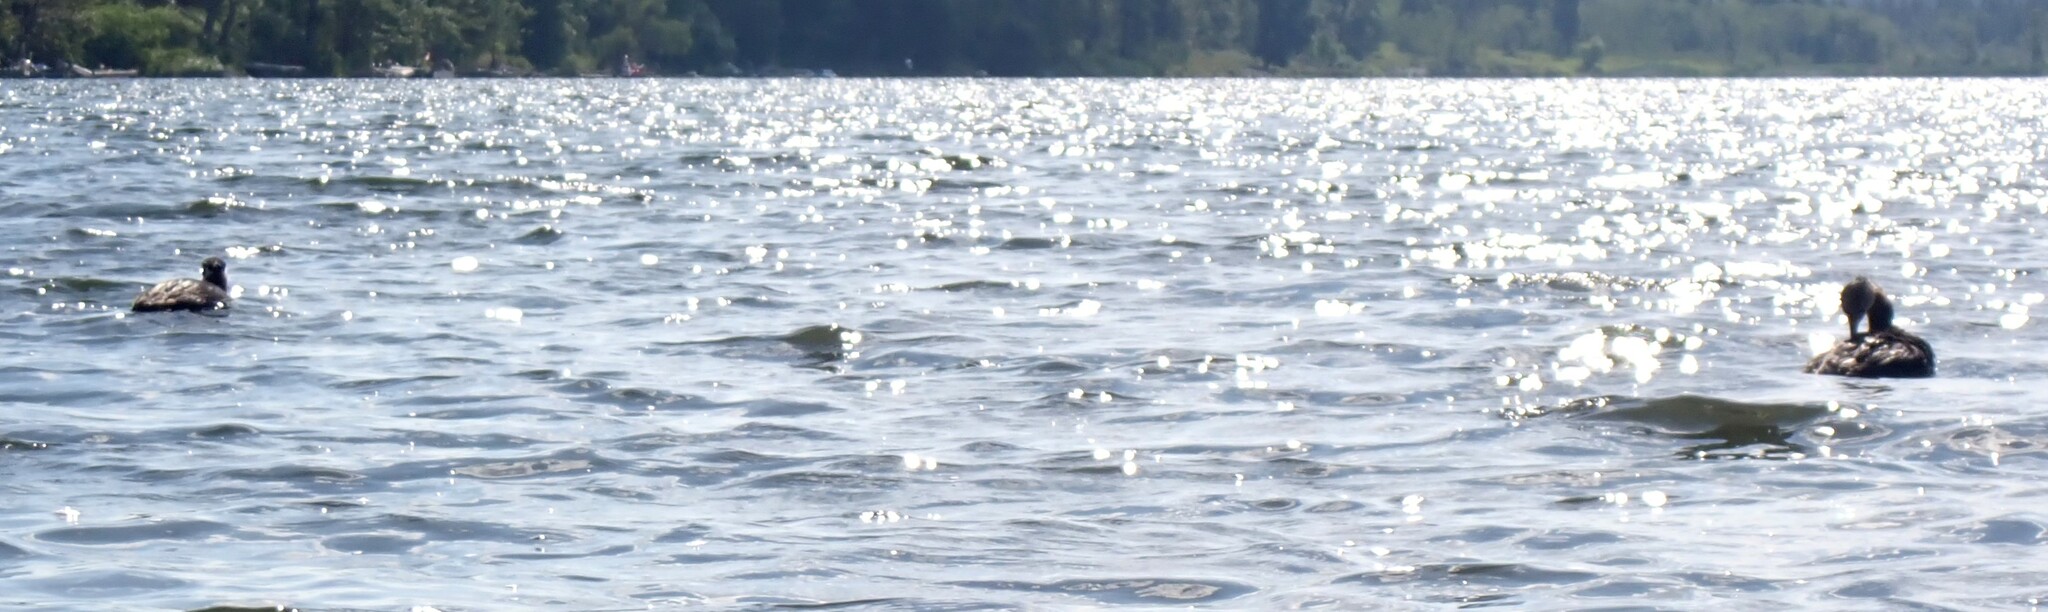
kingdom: Animalia
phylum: Chordata
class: Aves
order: Podicipediformes
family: Podicipedidae
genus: Podiceps
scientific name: Podiceps grisegena
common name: Red-necked grebe
